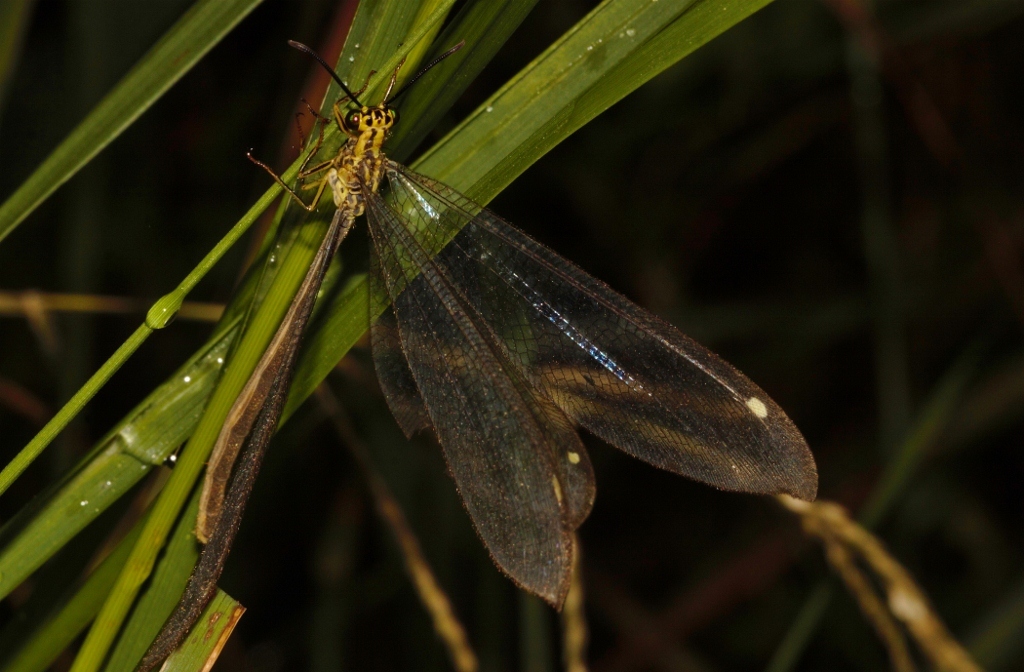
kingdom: Animalia
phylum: Arthropoda
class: Insecta
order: Neuroptera
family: Myrmeleontidae
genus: Hagenomyia
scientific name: Hagenomyia tristis
